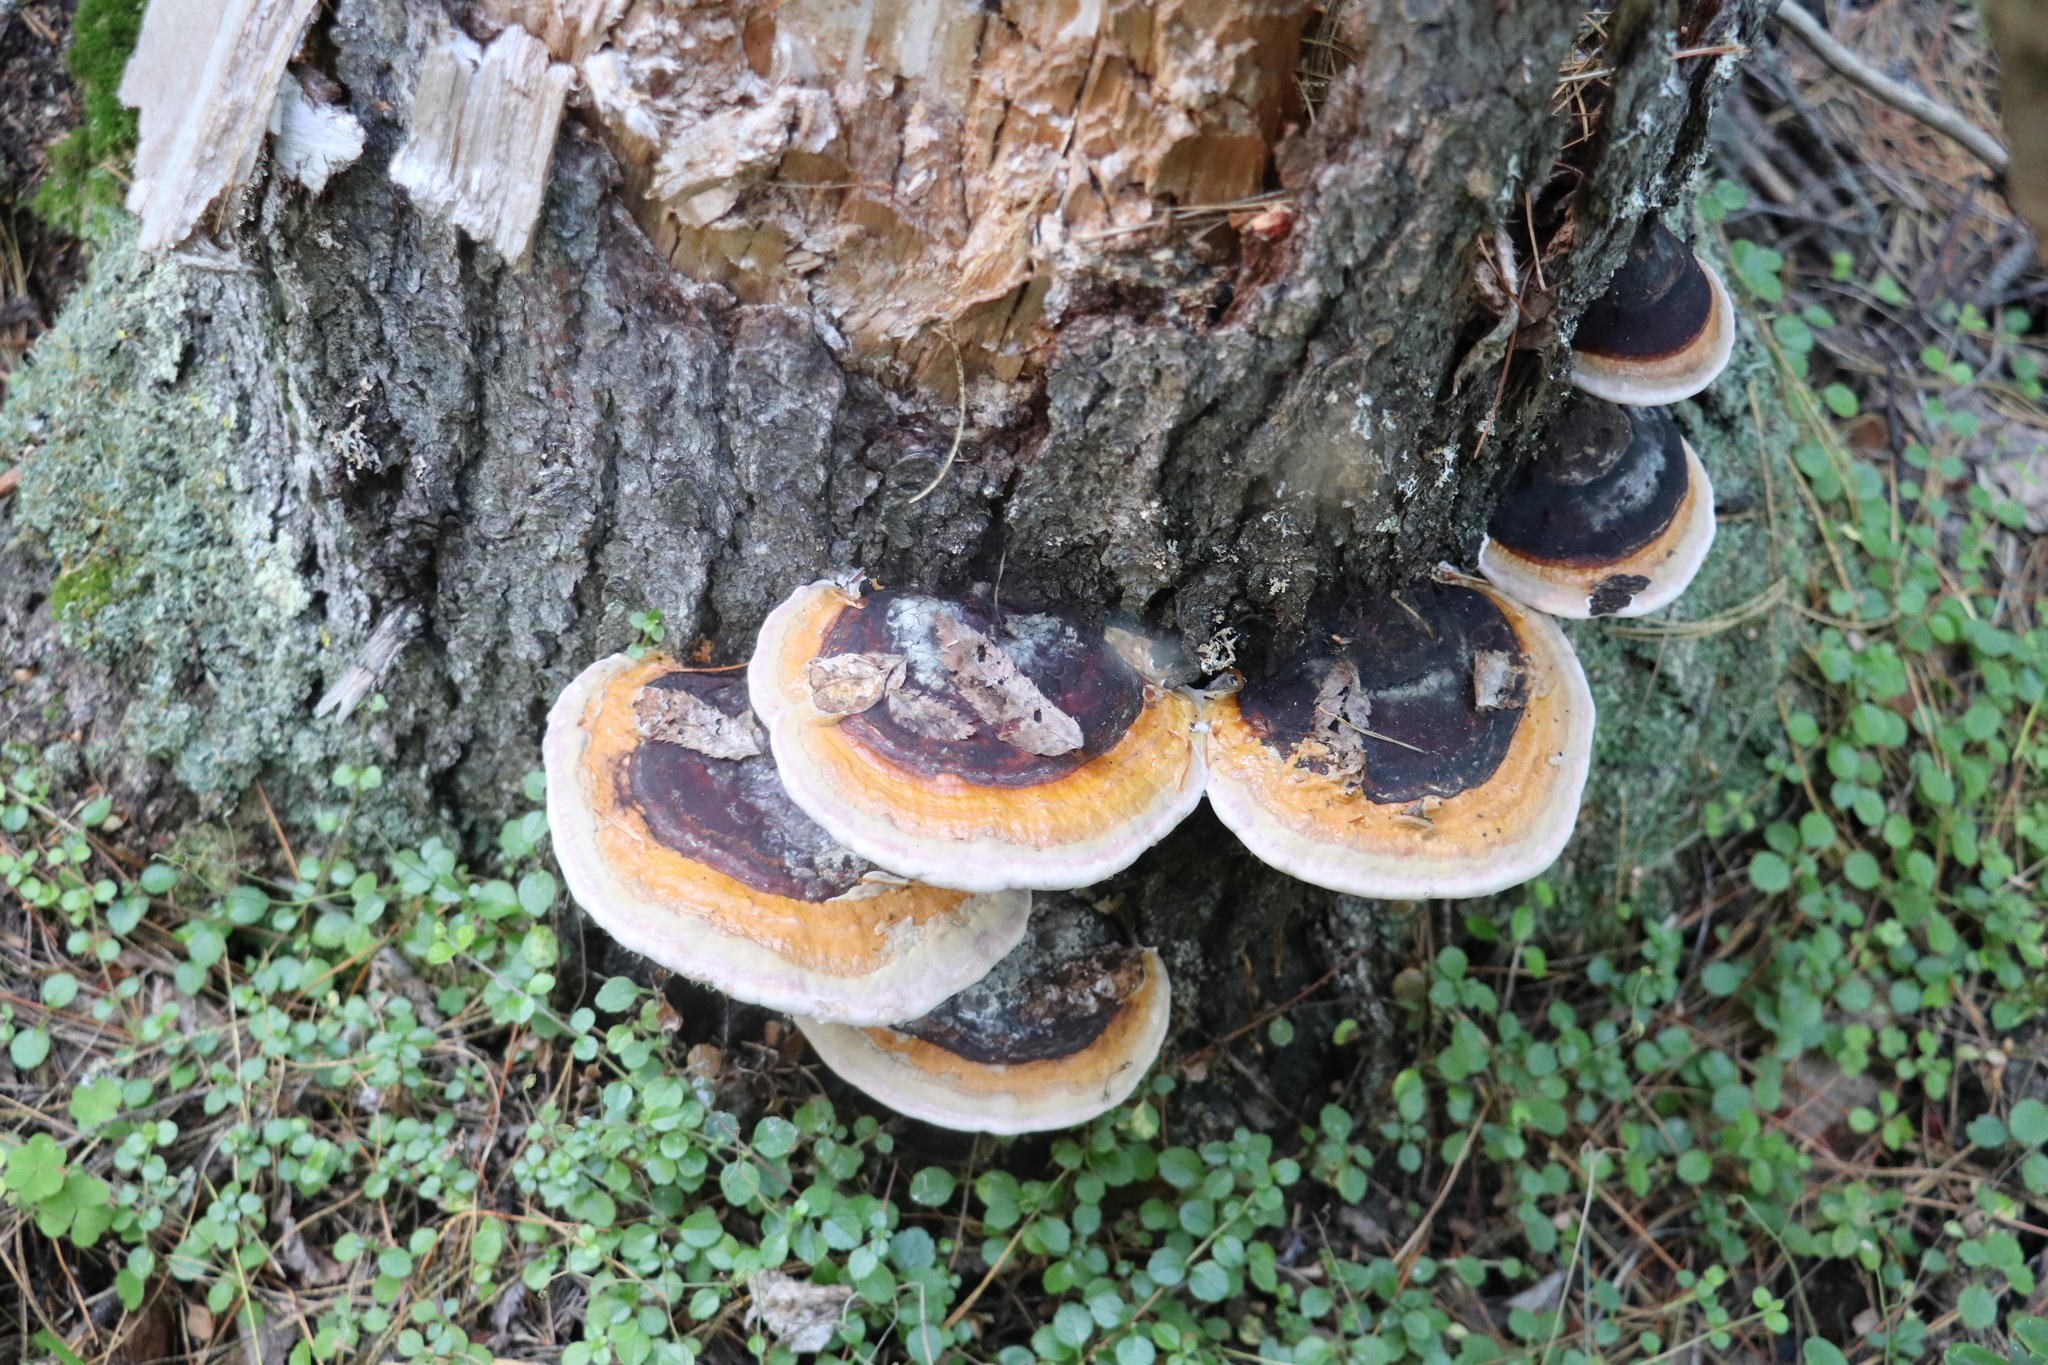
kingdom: Fungi
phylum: Basidiomycota
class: Agaricomycetes
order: Polyporales
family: Fomitopsidaceae
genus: Fomitopsis
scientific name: Fomitopsis pinicola
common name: Red-belted bracket
